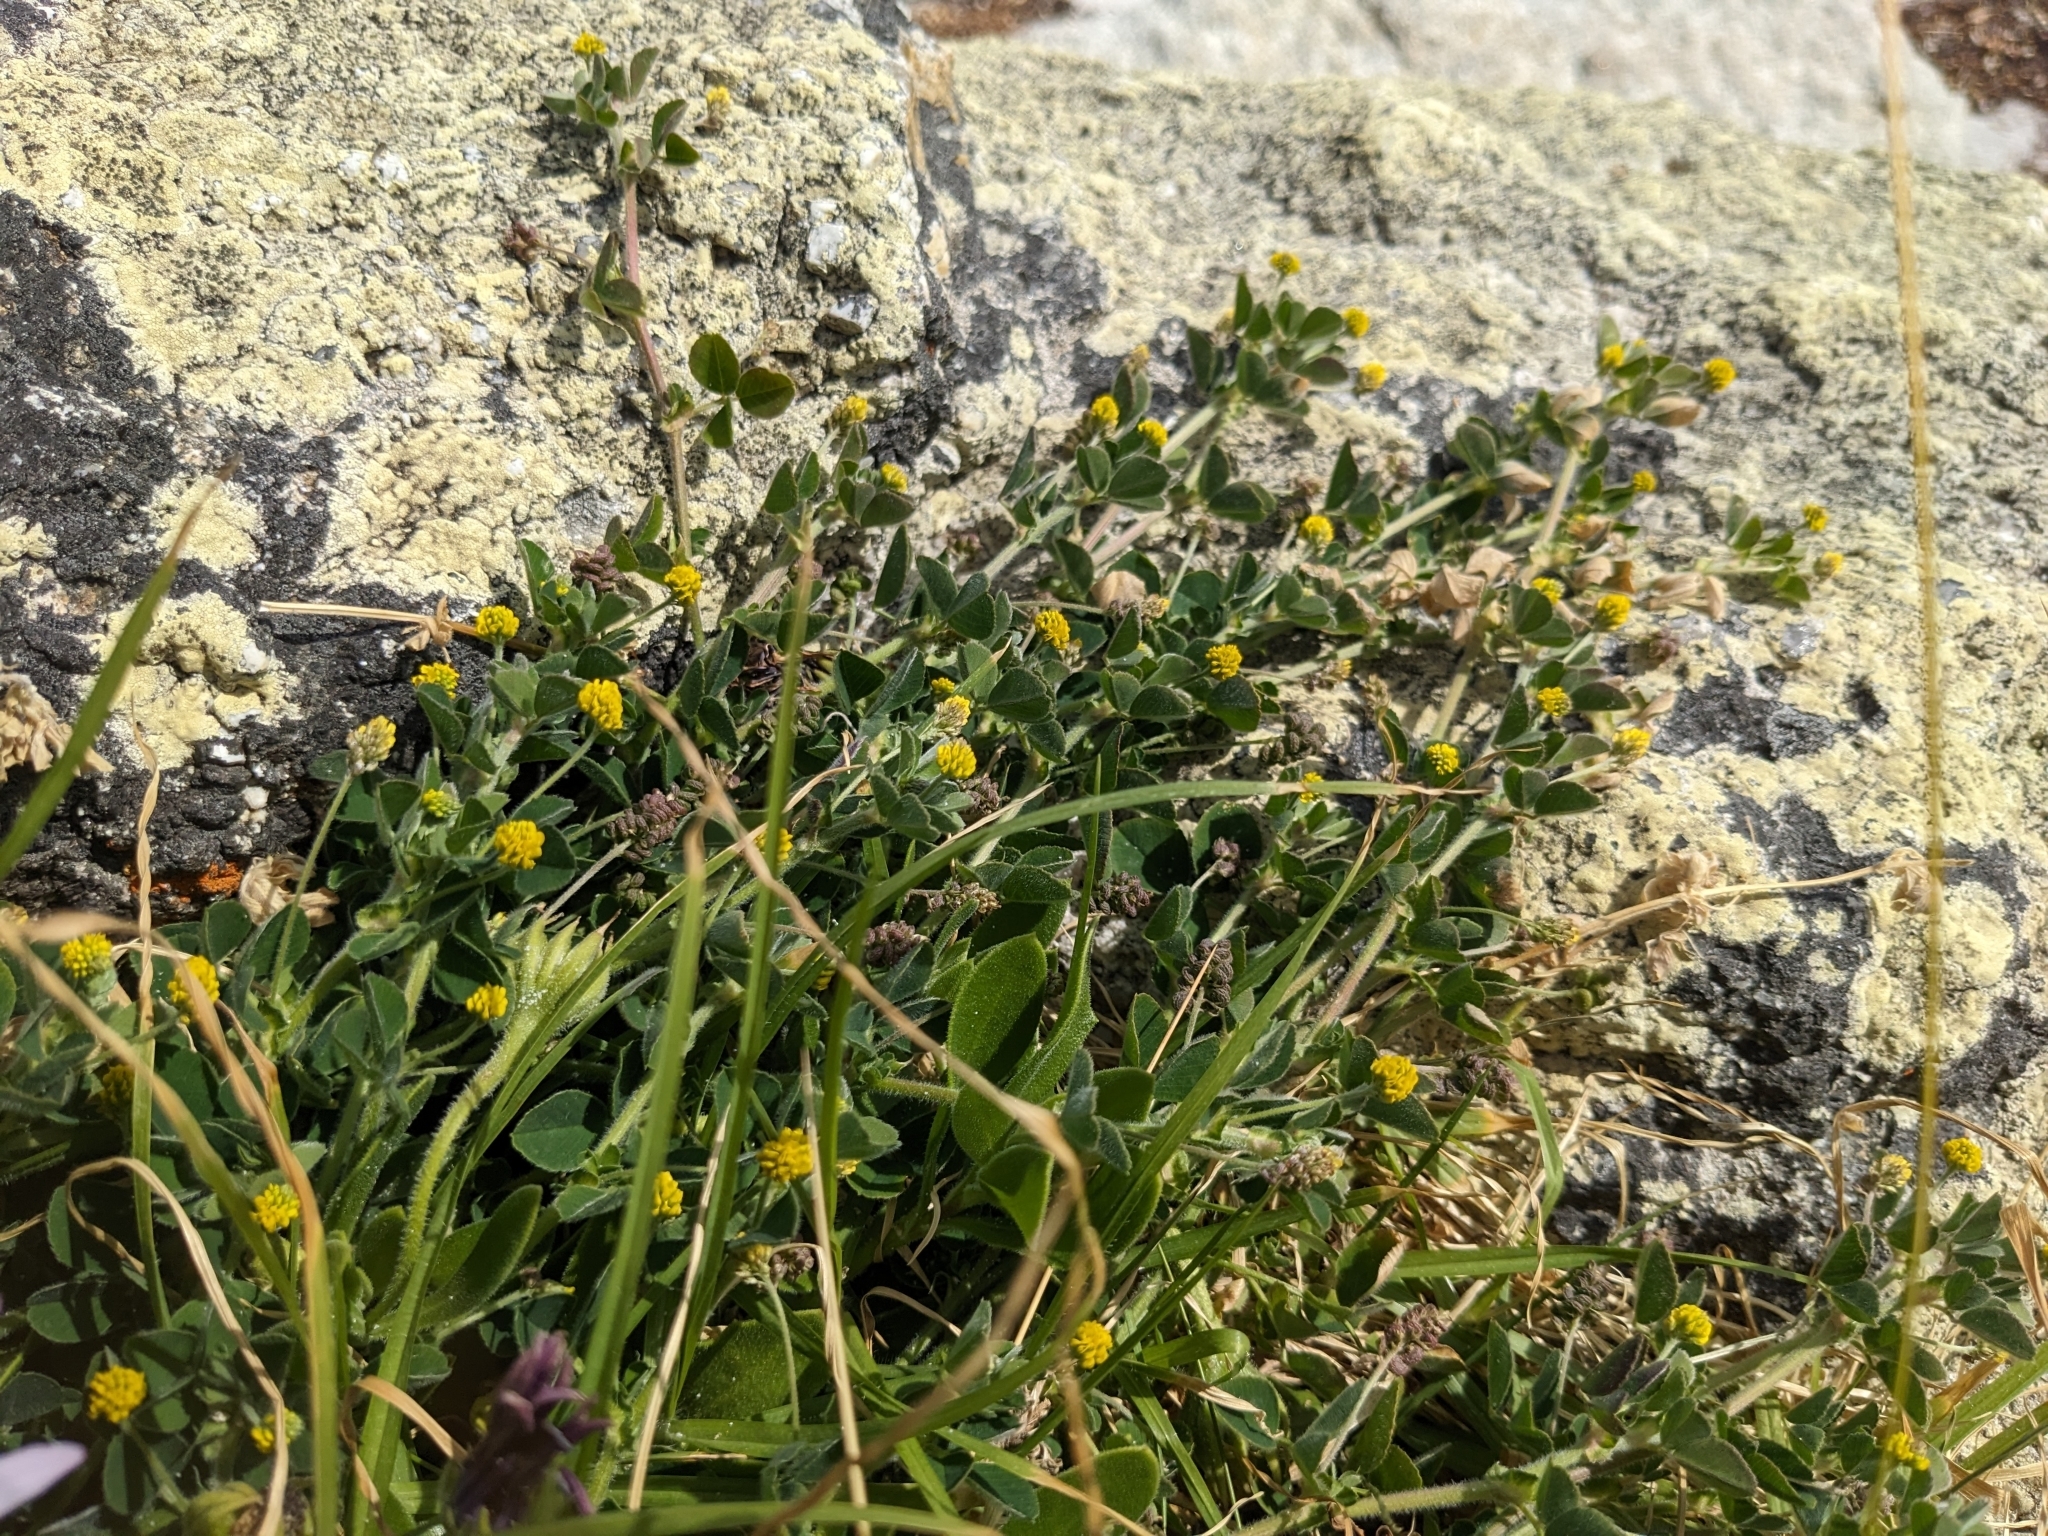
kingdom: Plantae
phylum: Tracheophyta
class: Magnoliopsida
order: Fabales
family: Fabaceae
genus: Medicago
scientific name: Medicago lupulina
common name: Black medick
